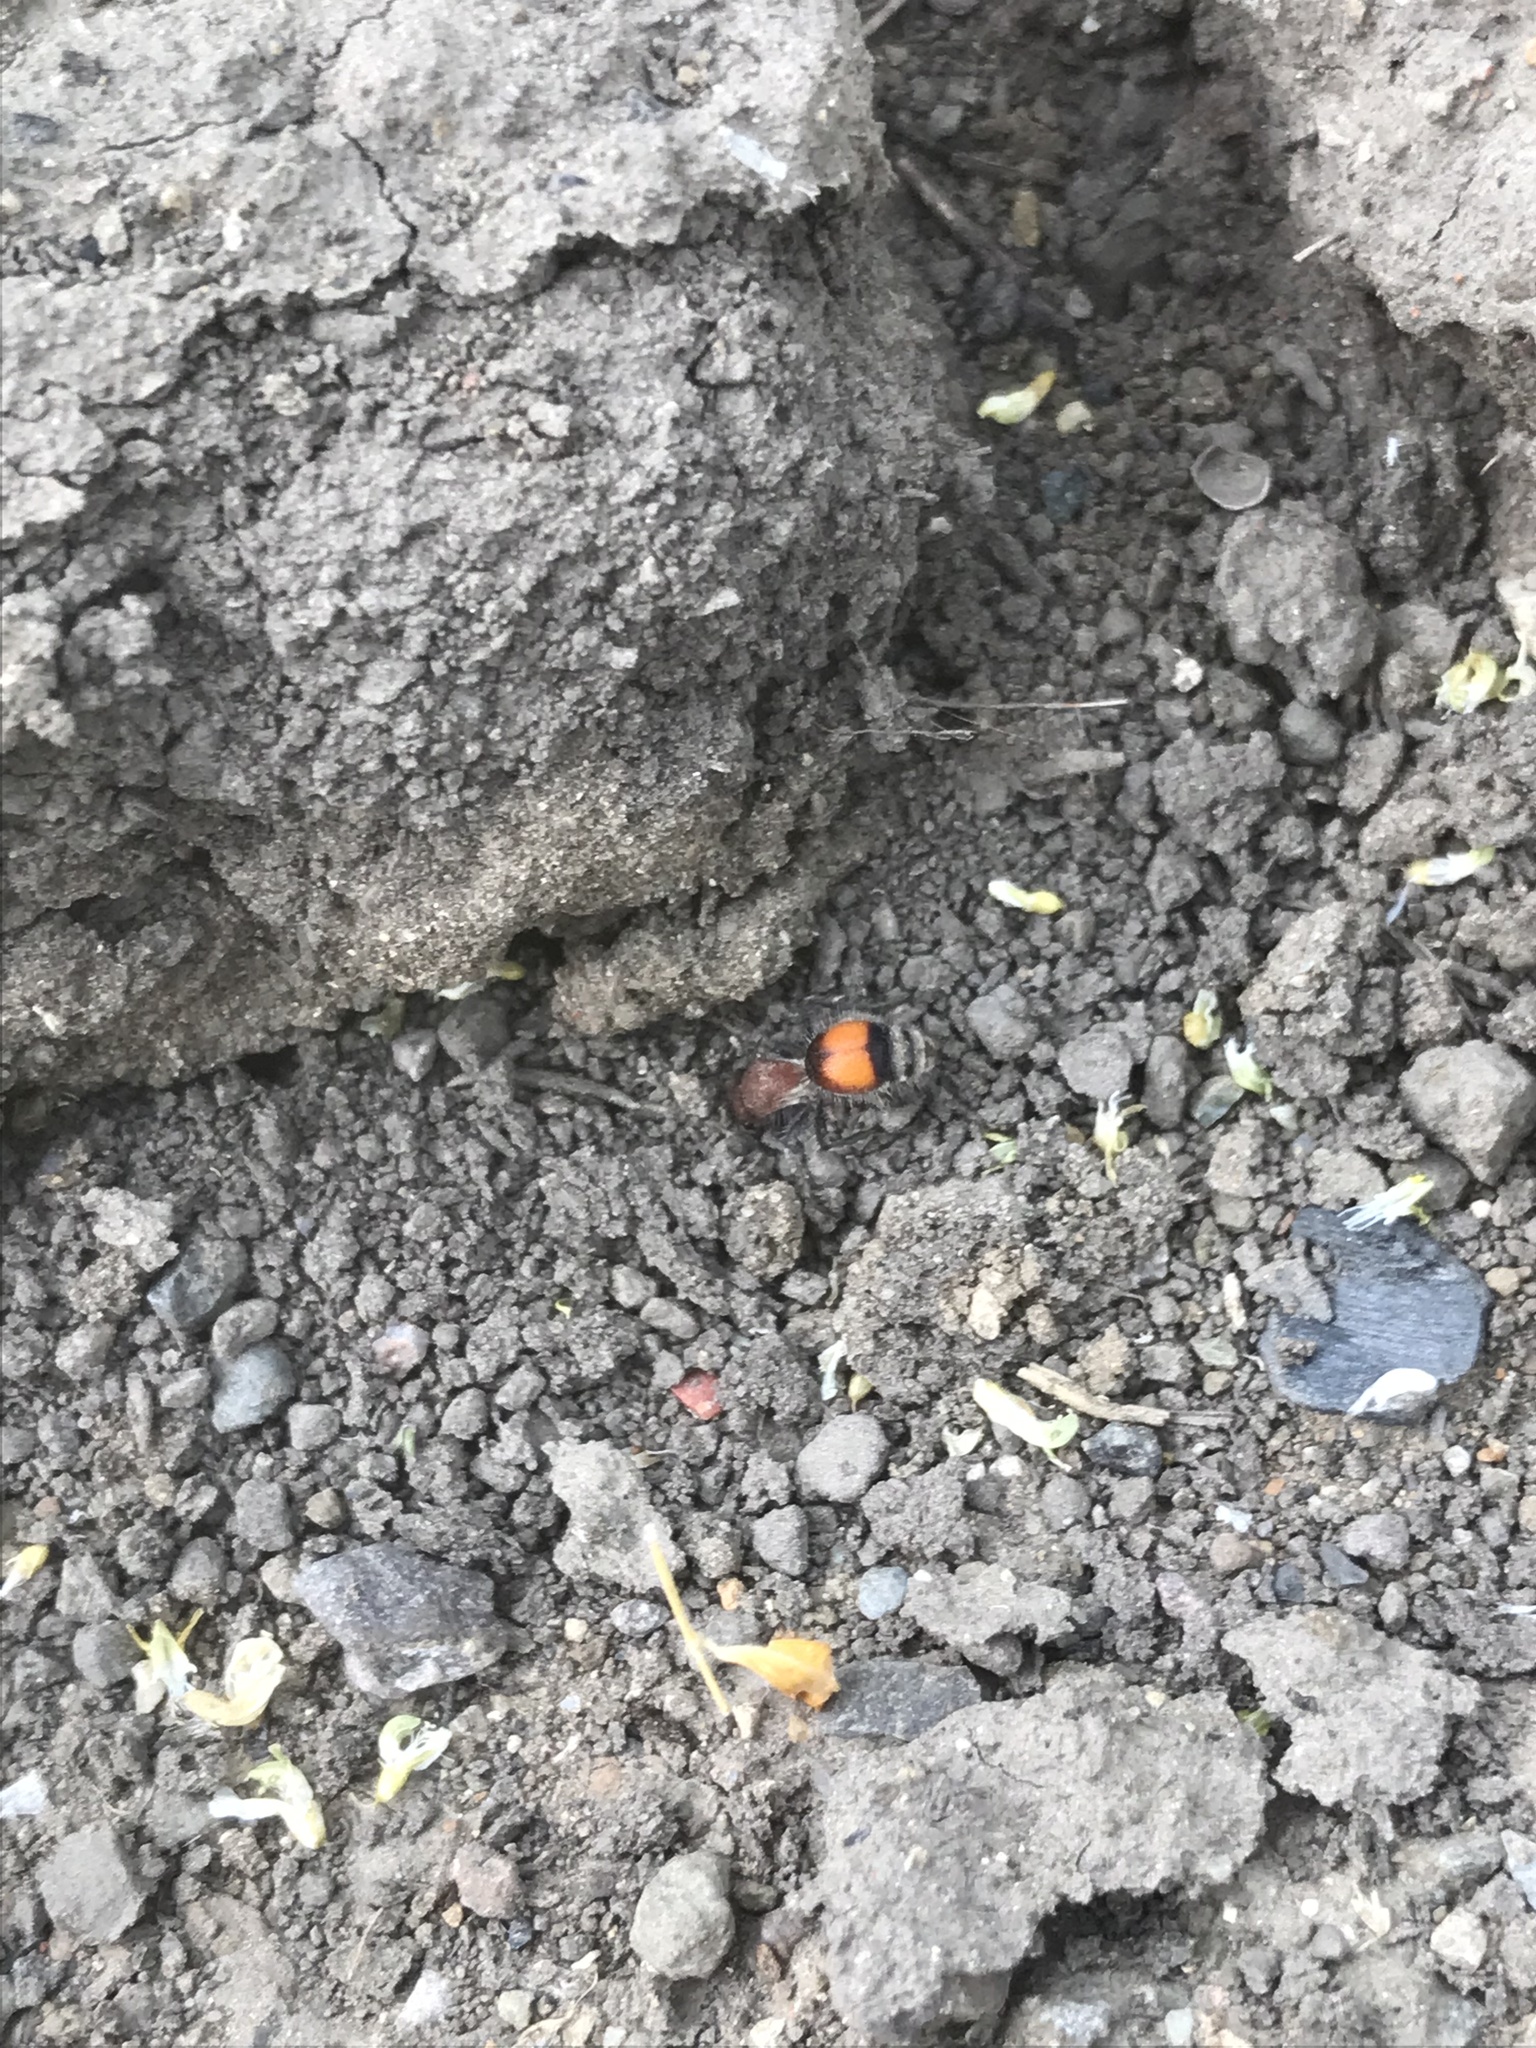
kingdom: Animalia
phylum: Arthropoda
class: Insecta
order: Hymenoptera
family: Mutillidae
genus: Dasymutilla
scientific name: Dasymutilla
